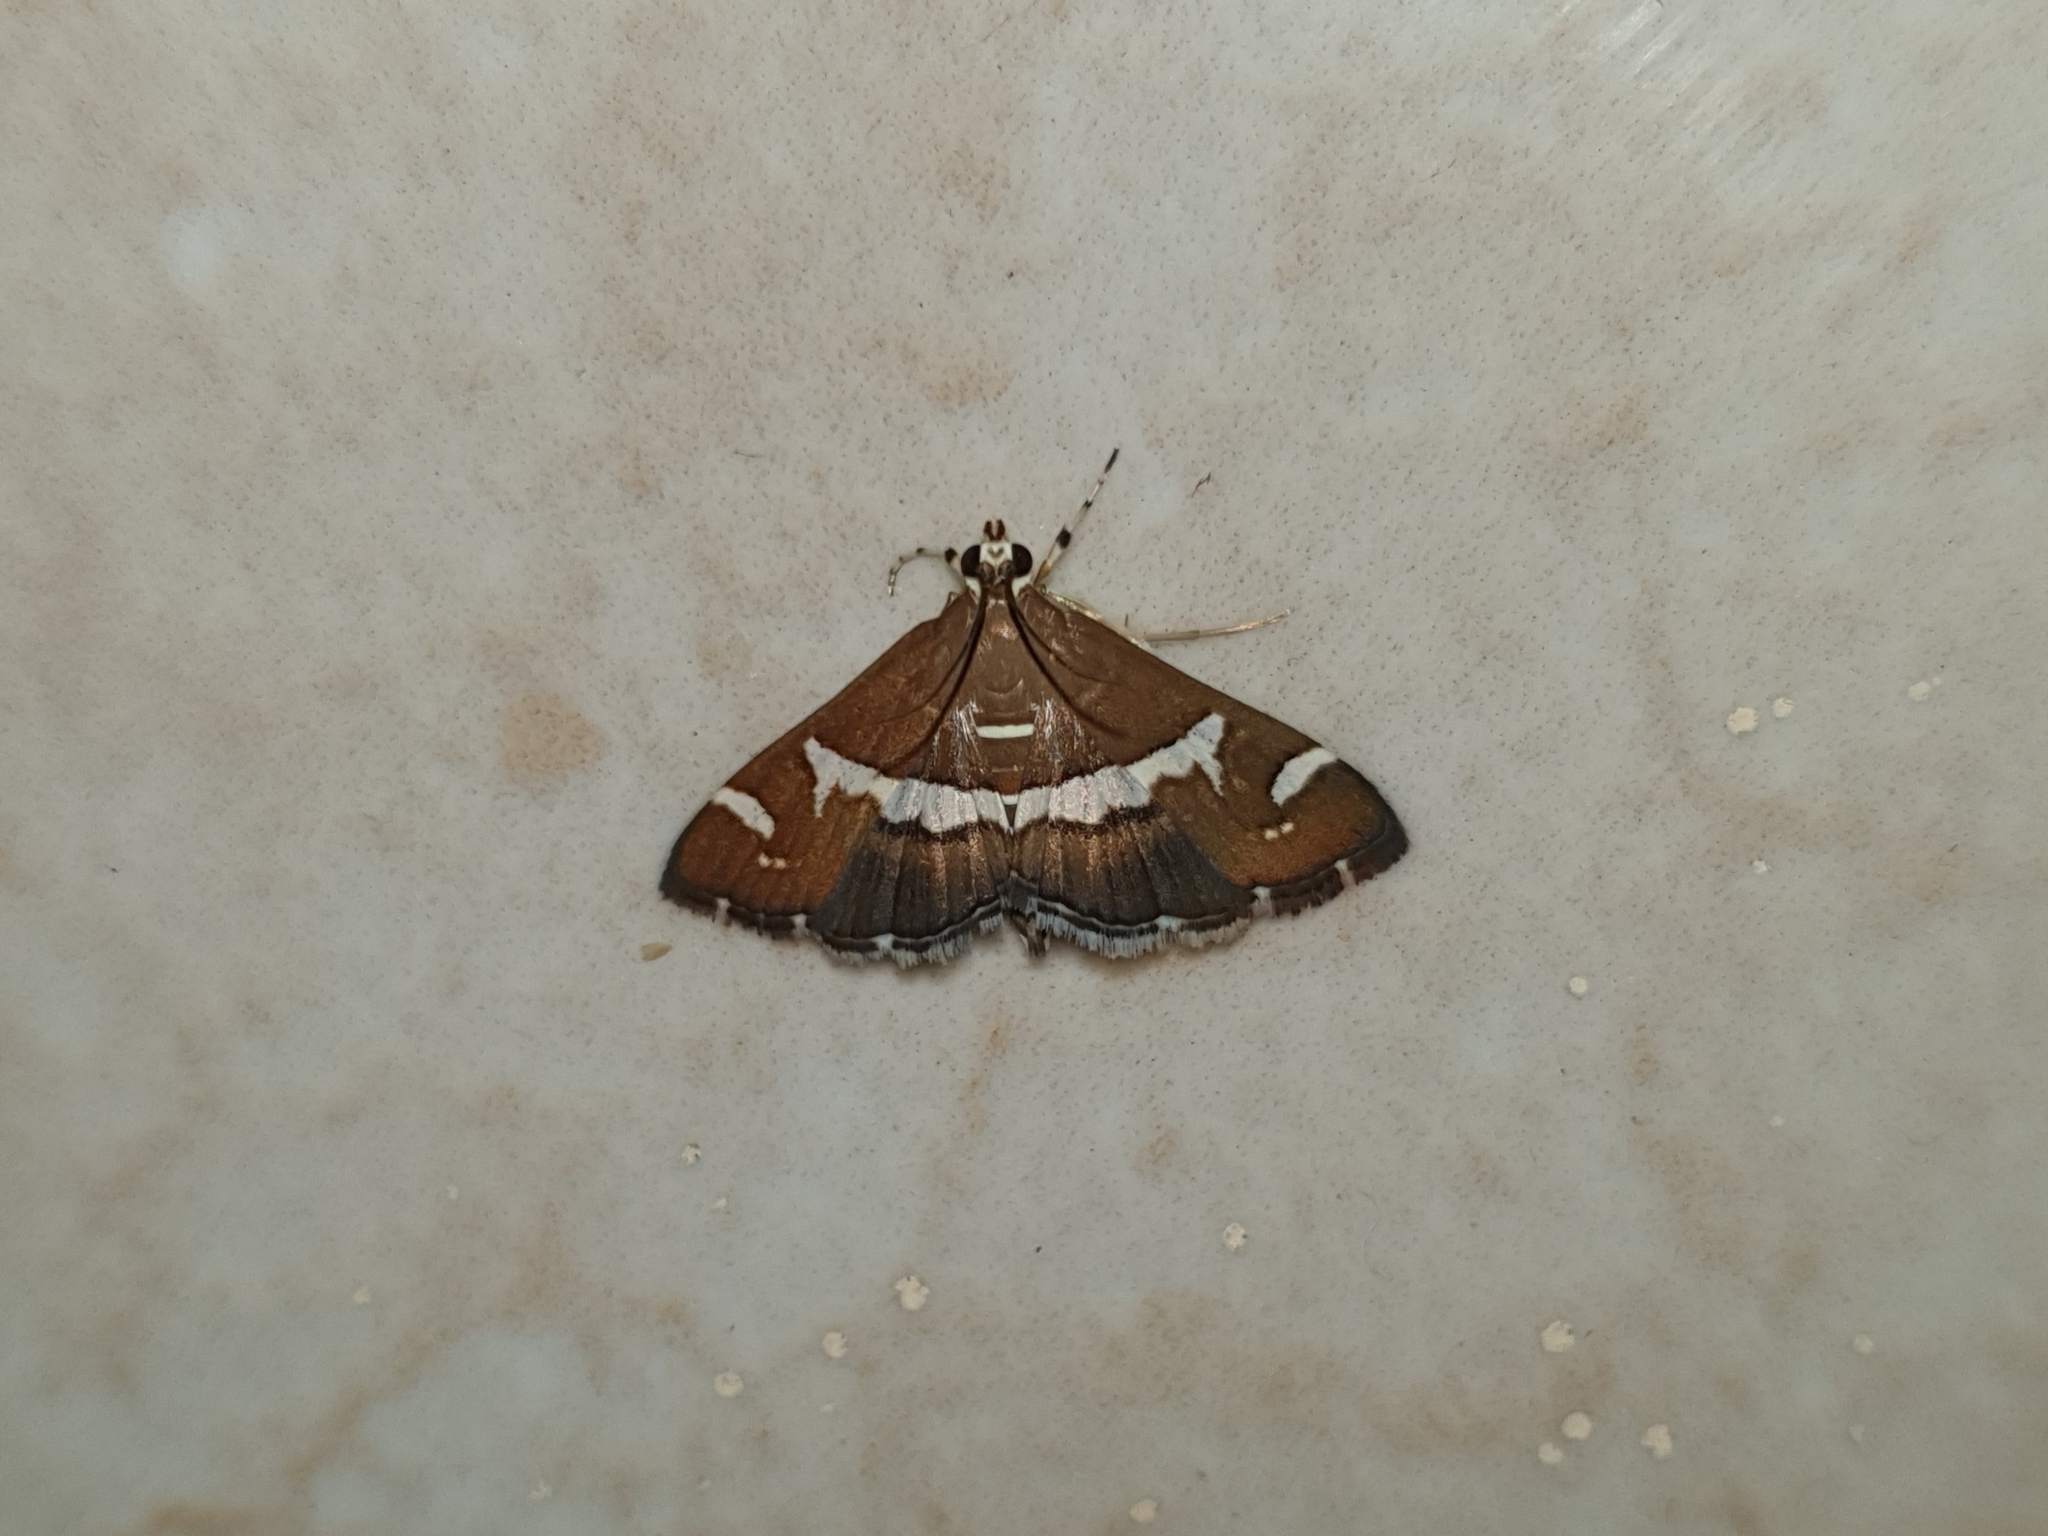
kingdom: Animalia
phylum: Arthropoda
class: Insecta
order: Lepidoptera
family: Crambidae
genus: Spoladea
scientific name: Spoladea recurvalis
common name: Beet webworm moth
